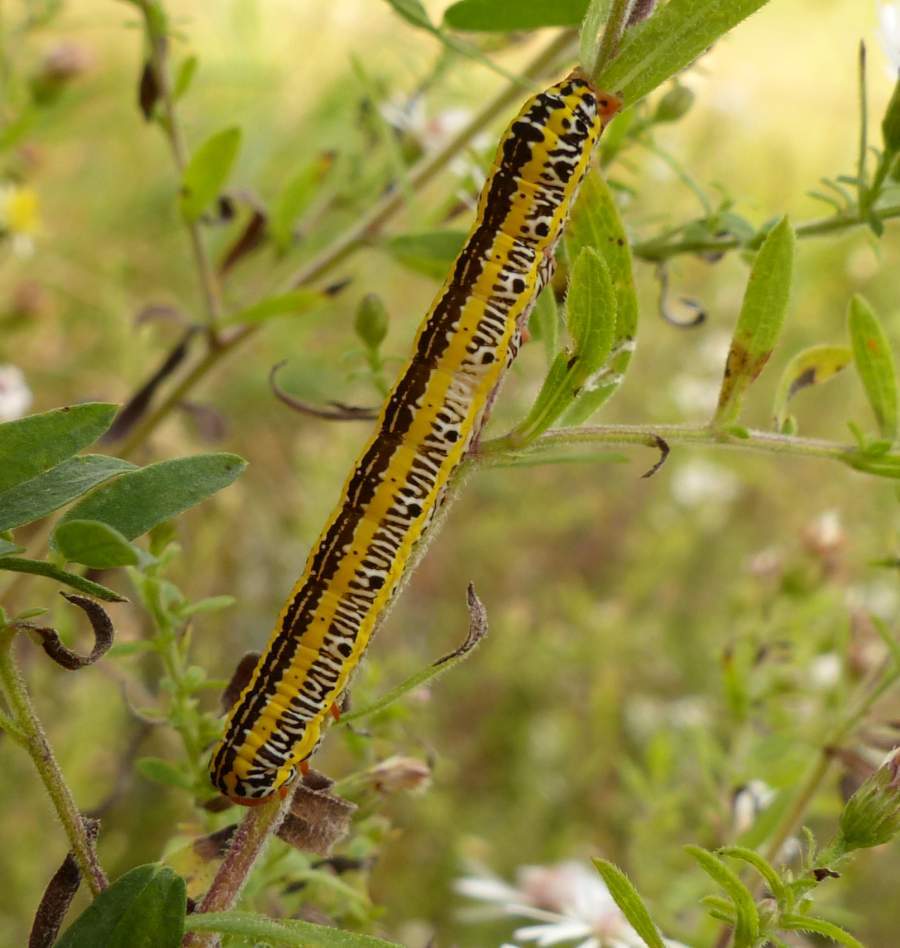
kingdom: Animalia
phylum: Arthropoda
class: Insecta
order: Lepidoptera
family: Noctuidae
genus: Melanchra
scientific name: Melanchra picta
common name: Zebra caterpillar
